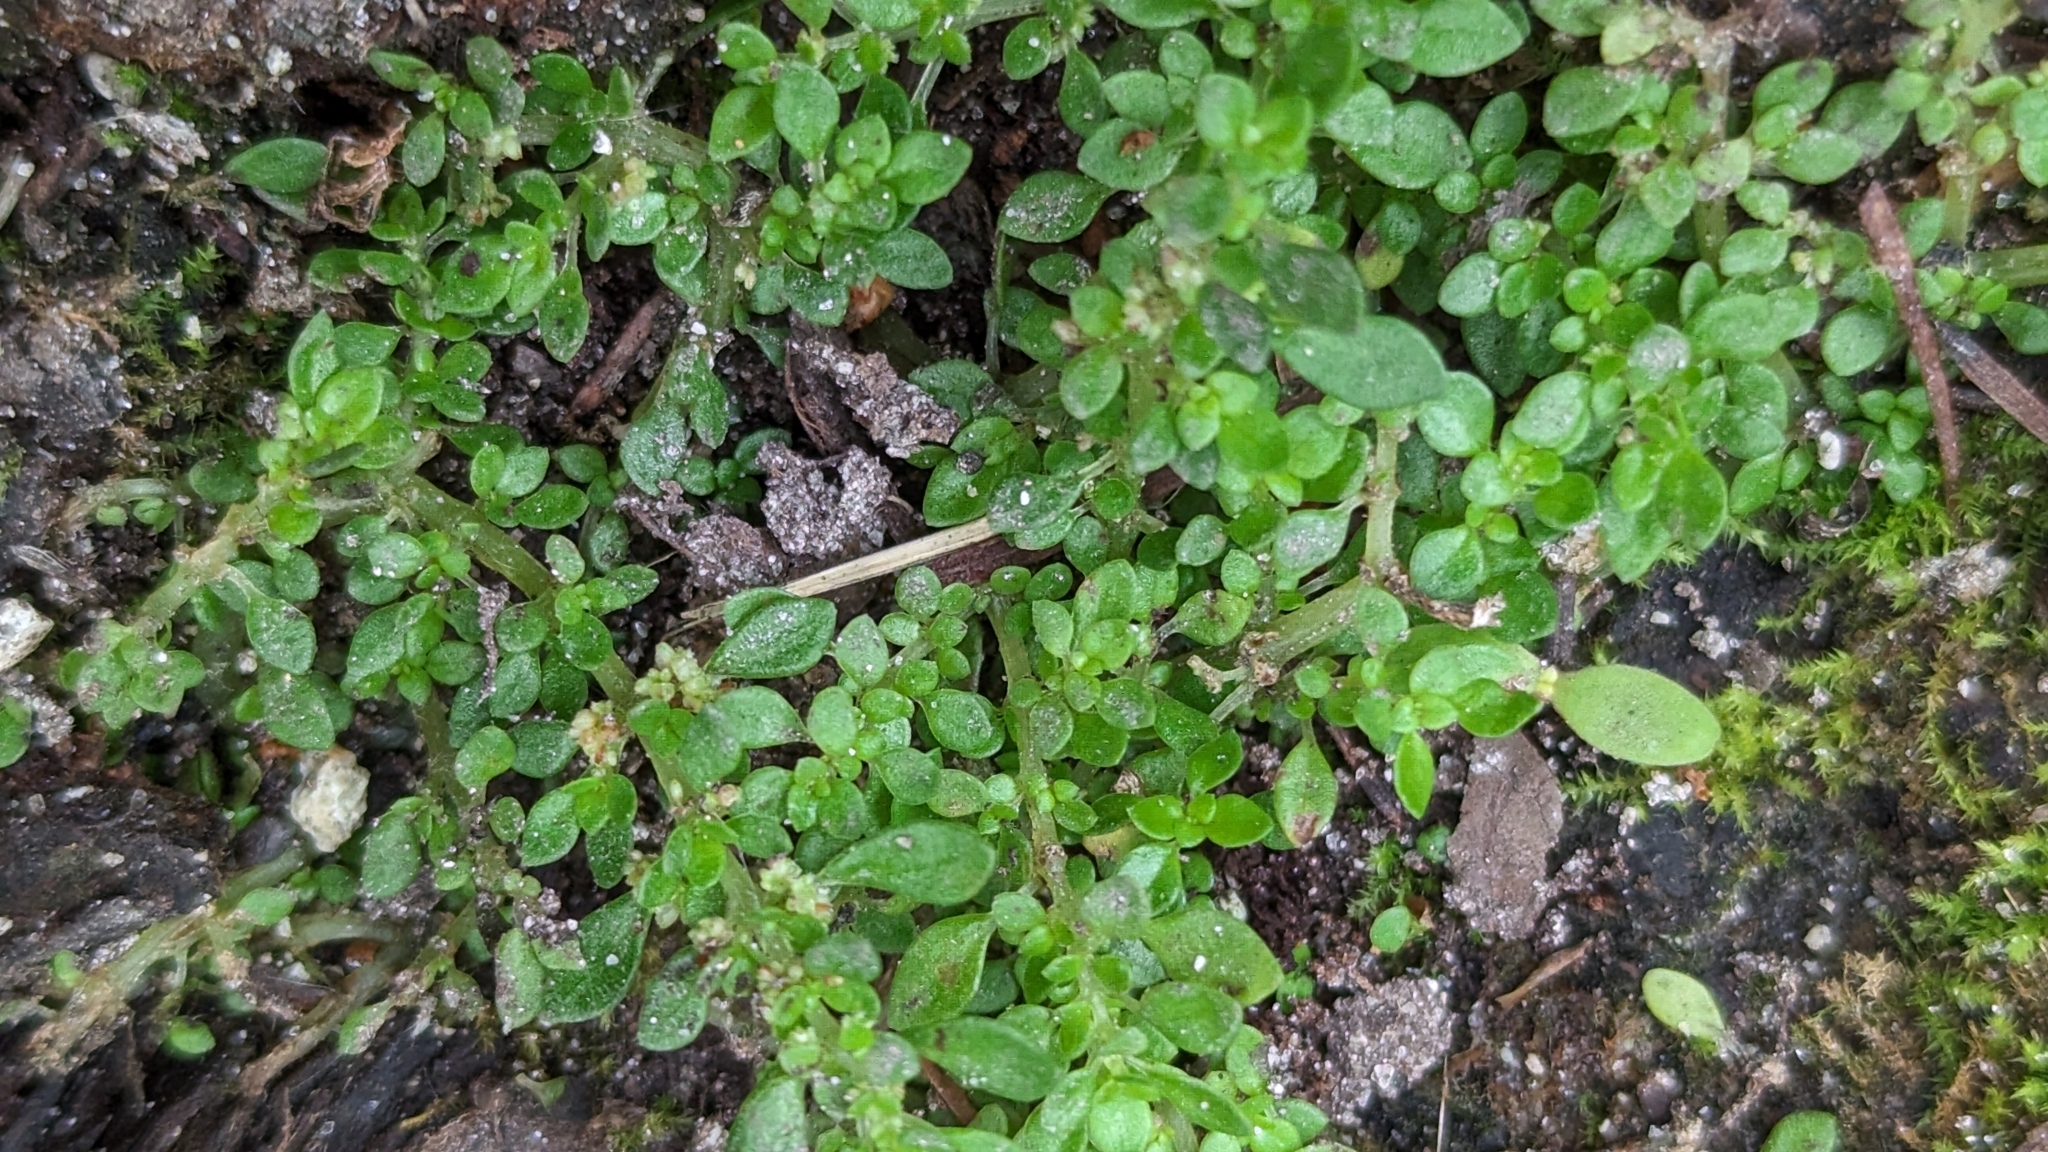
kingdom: Plantae
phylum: Tracheophyta
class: Magnoliopsida
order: Rosales
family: Urticaceae
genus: Pilea
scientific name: Pilea microphylla
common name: Artillery-plant
